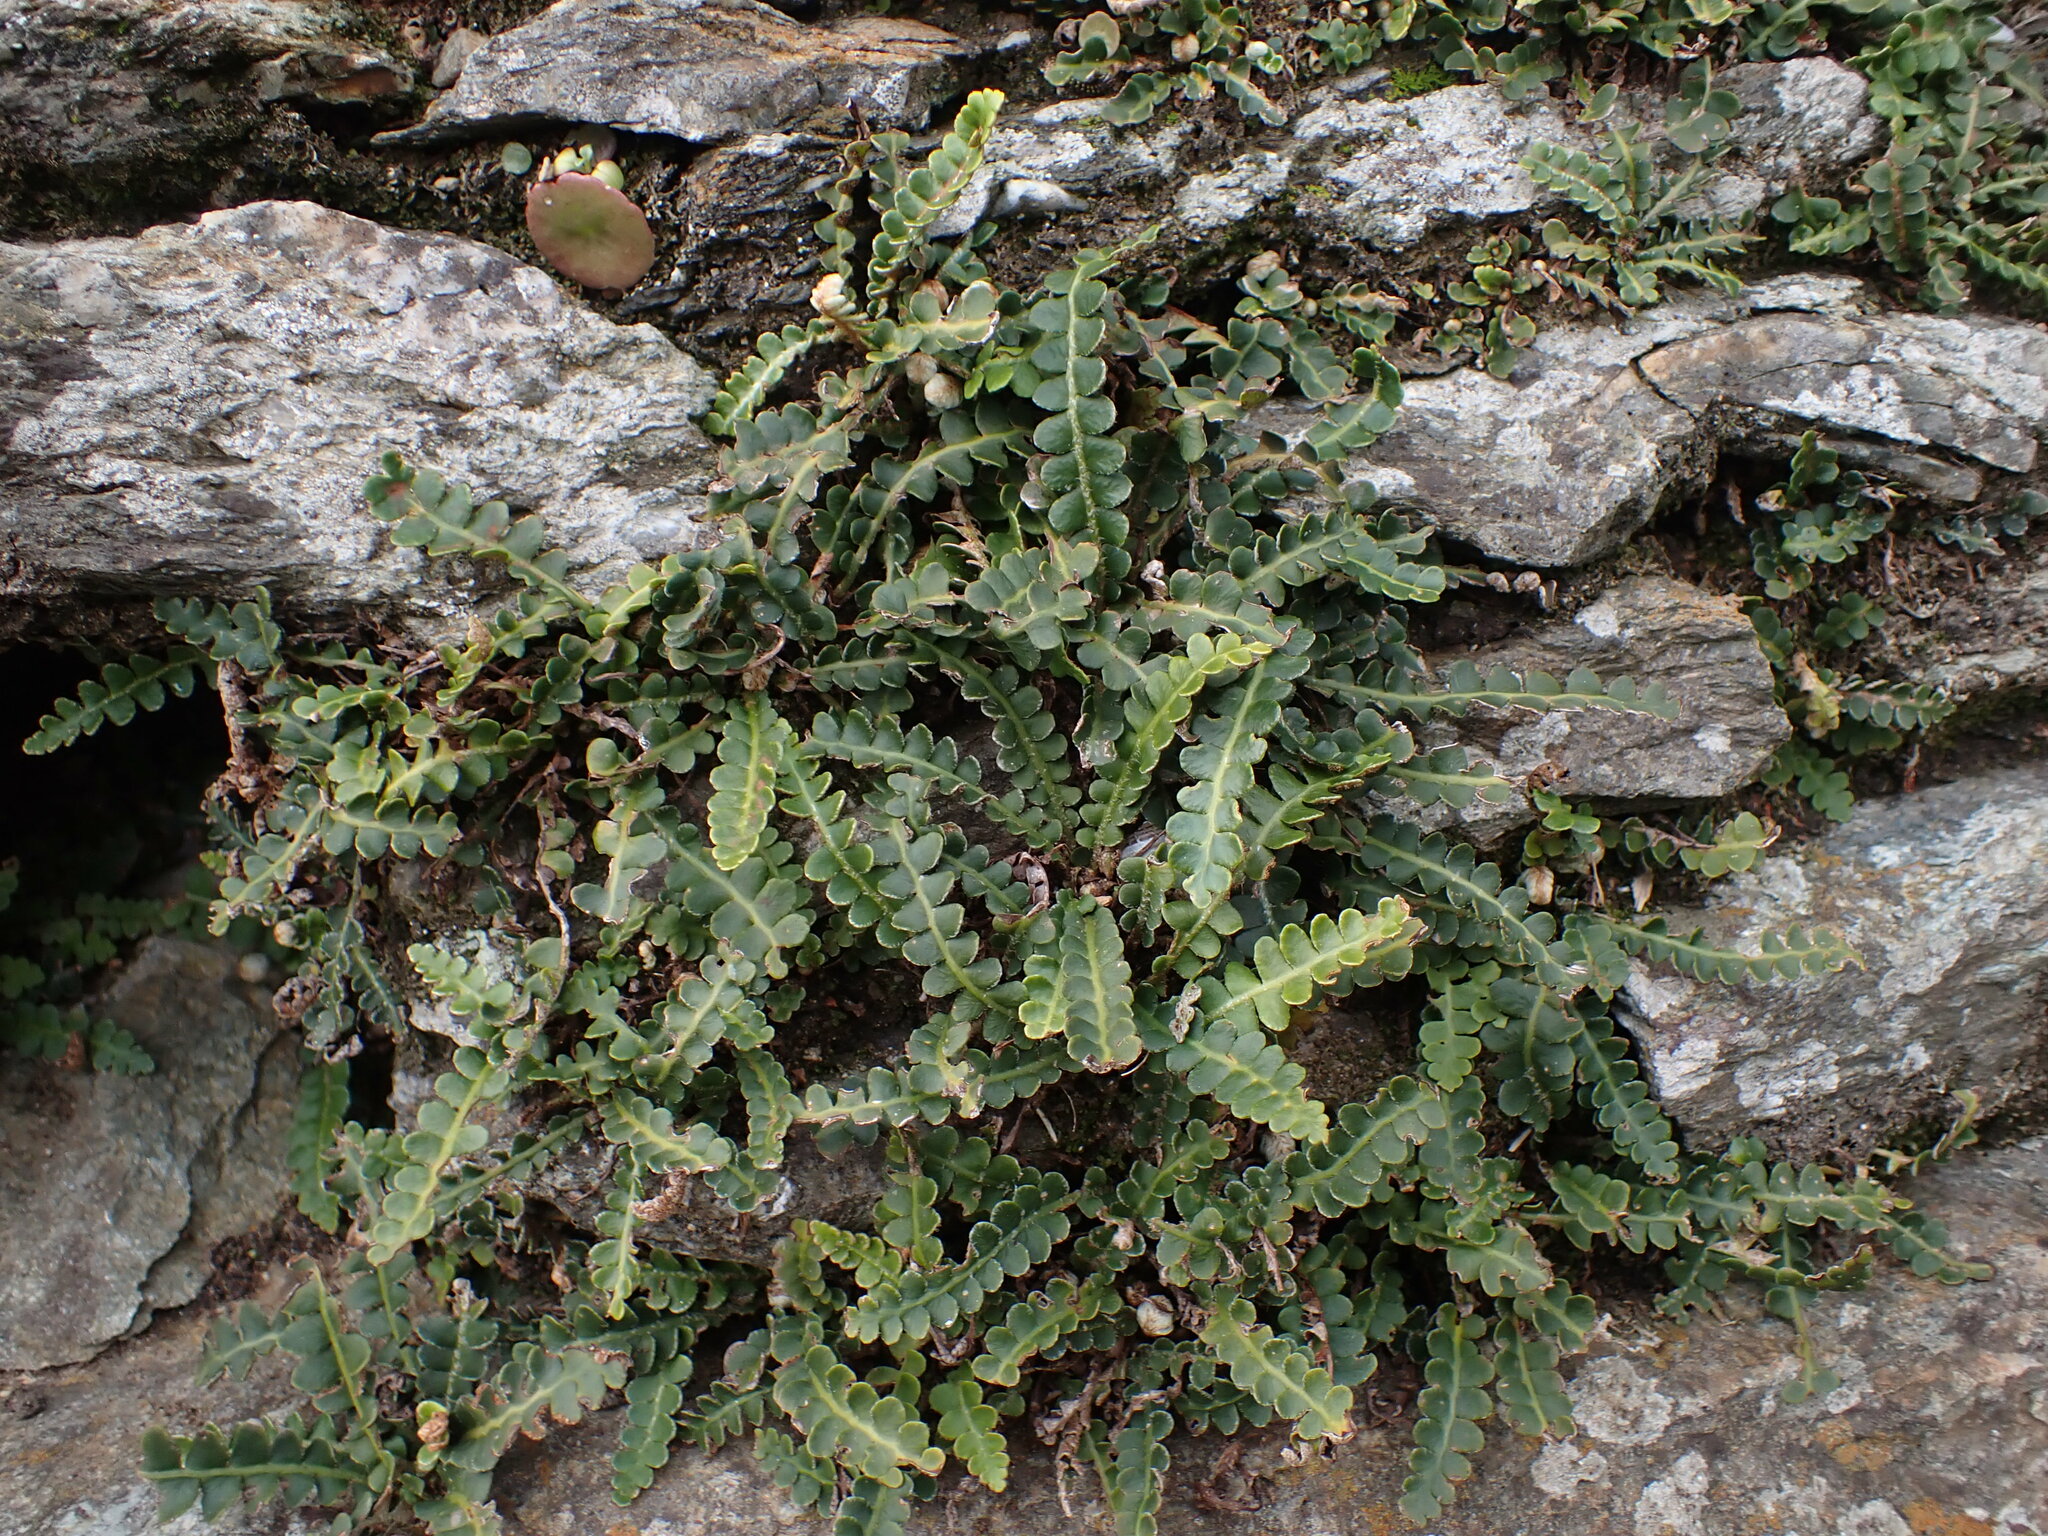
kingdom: Plantae
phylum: Tracheophyta
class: Polypodiopsida
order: Polypodiales
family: Aspleniaceae
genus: Asplenium
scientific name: Asplenium ceterach
